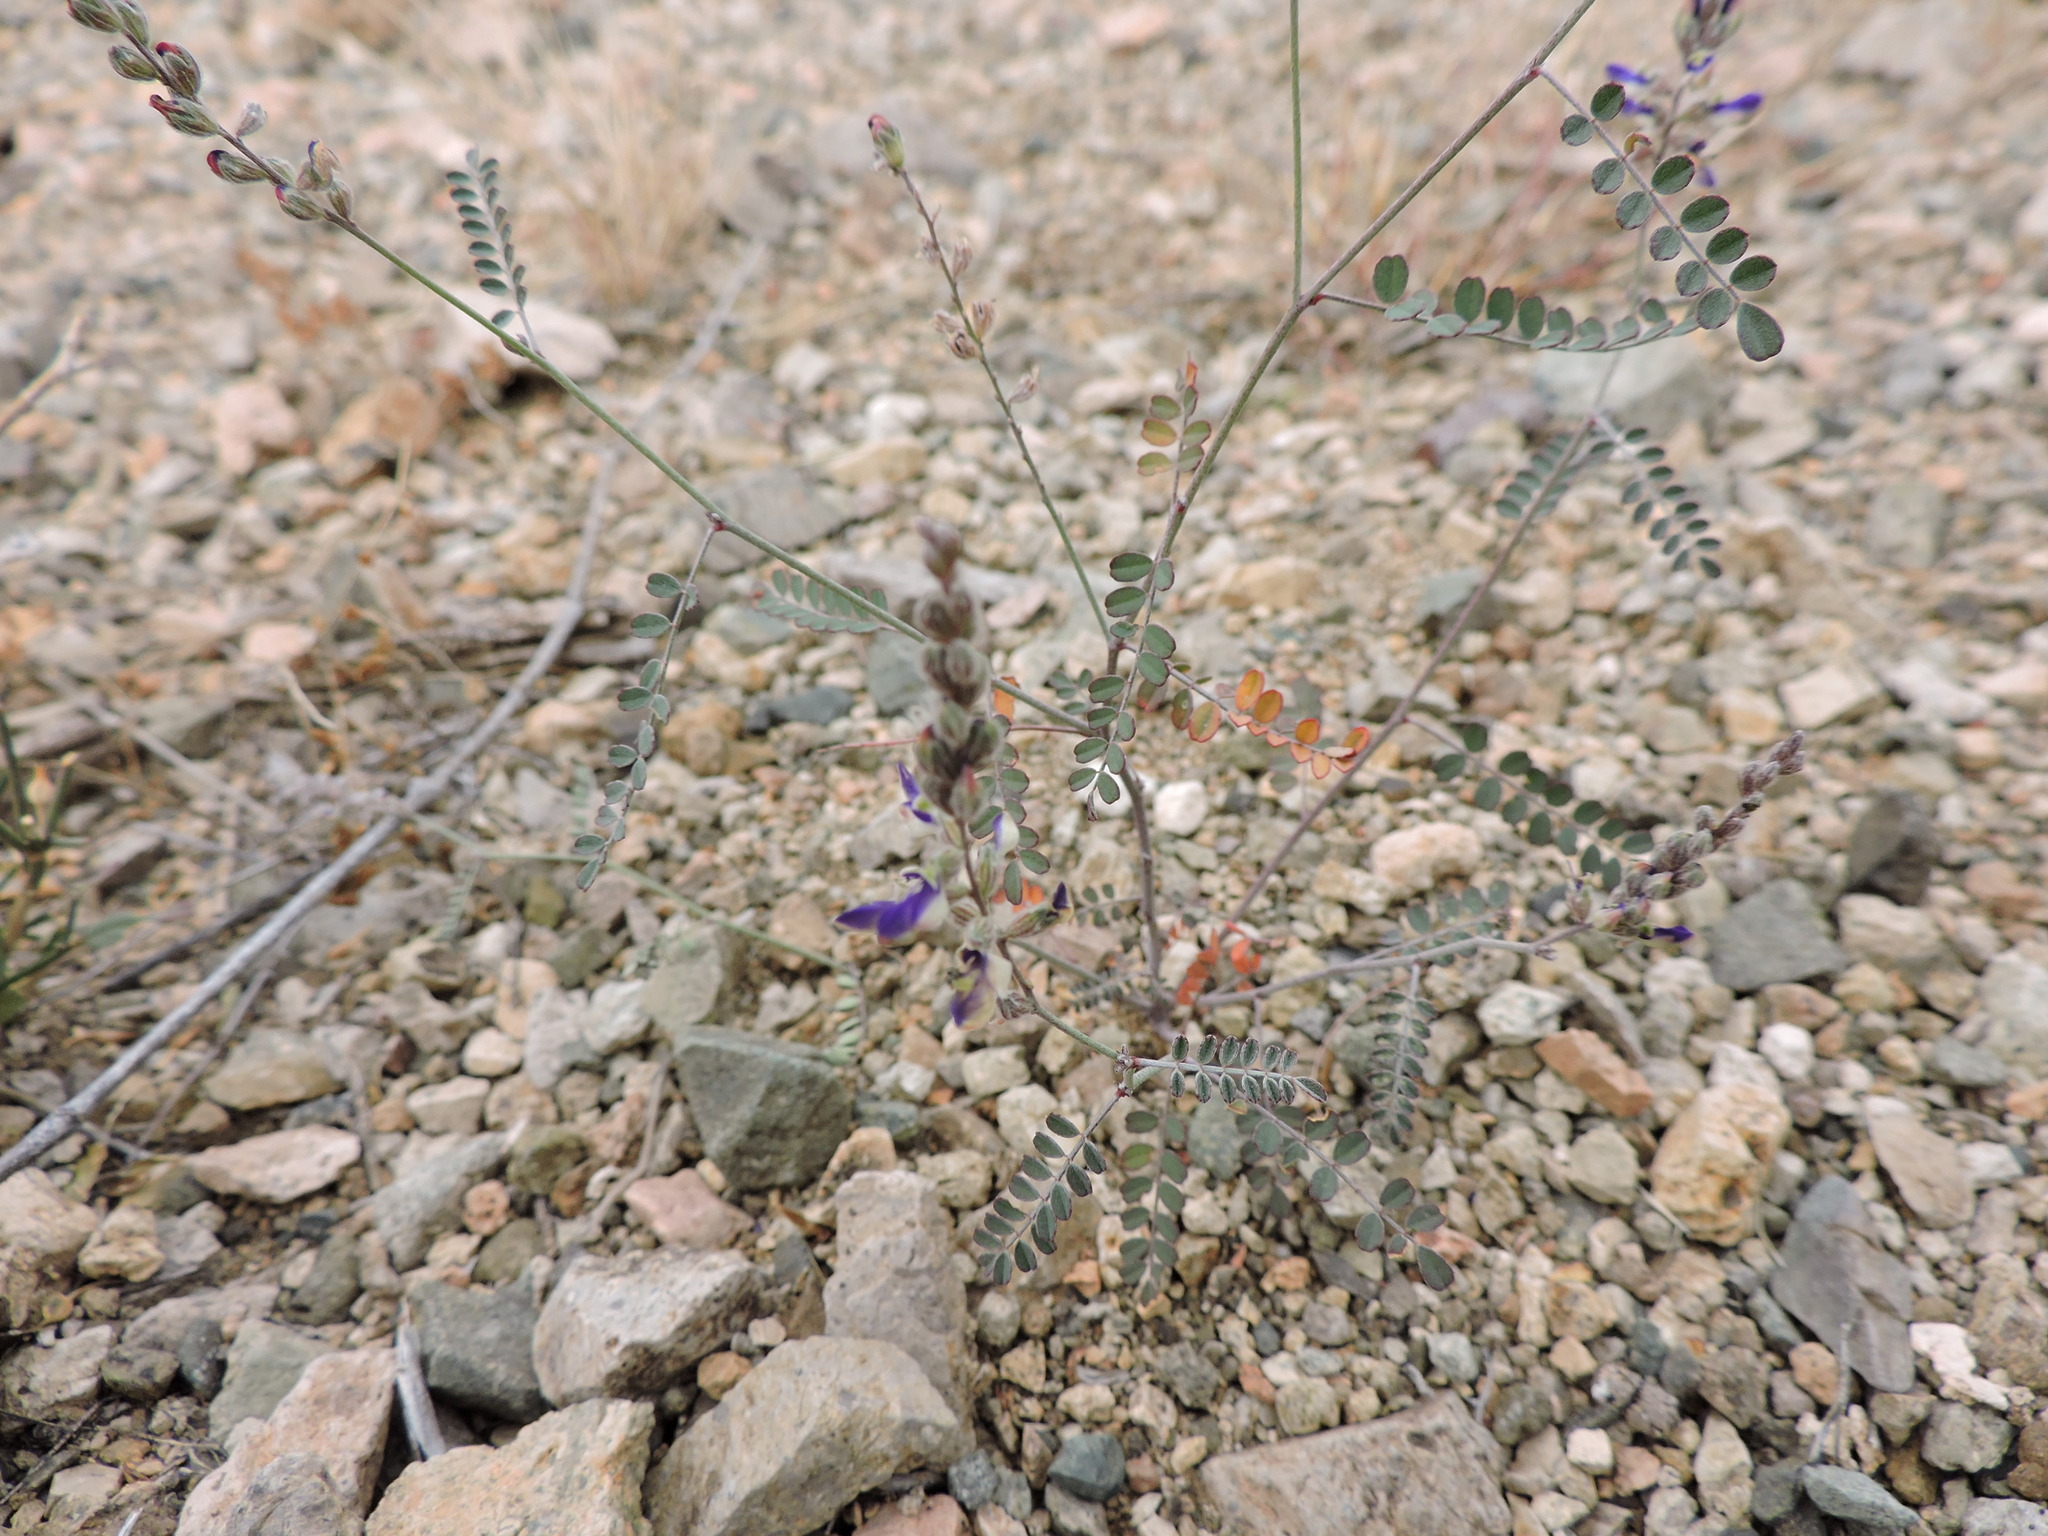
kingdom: Plantae
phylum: Tracheophyta
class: Magnoliopsida
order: Fabales
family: Fabaceae
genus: Marina
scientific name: Marina parryi
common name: Parry's marina
